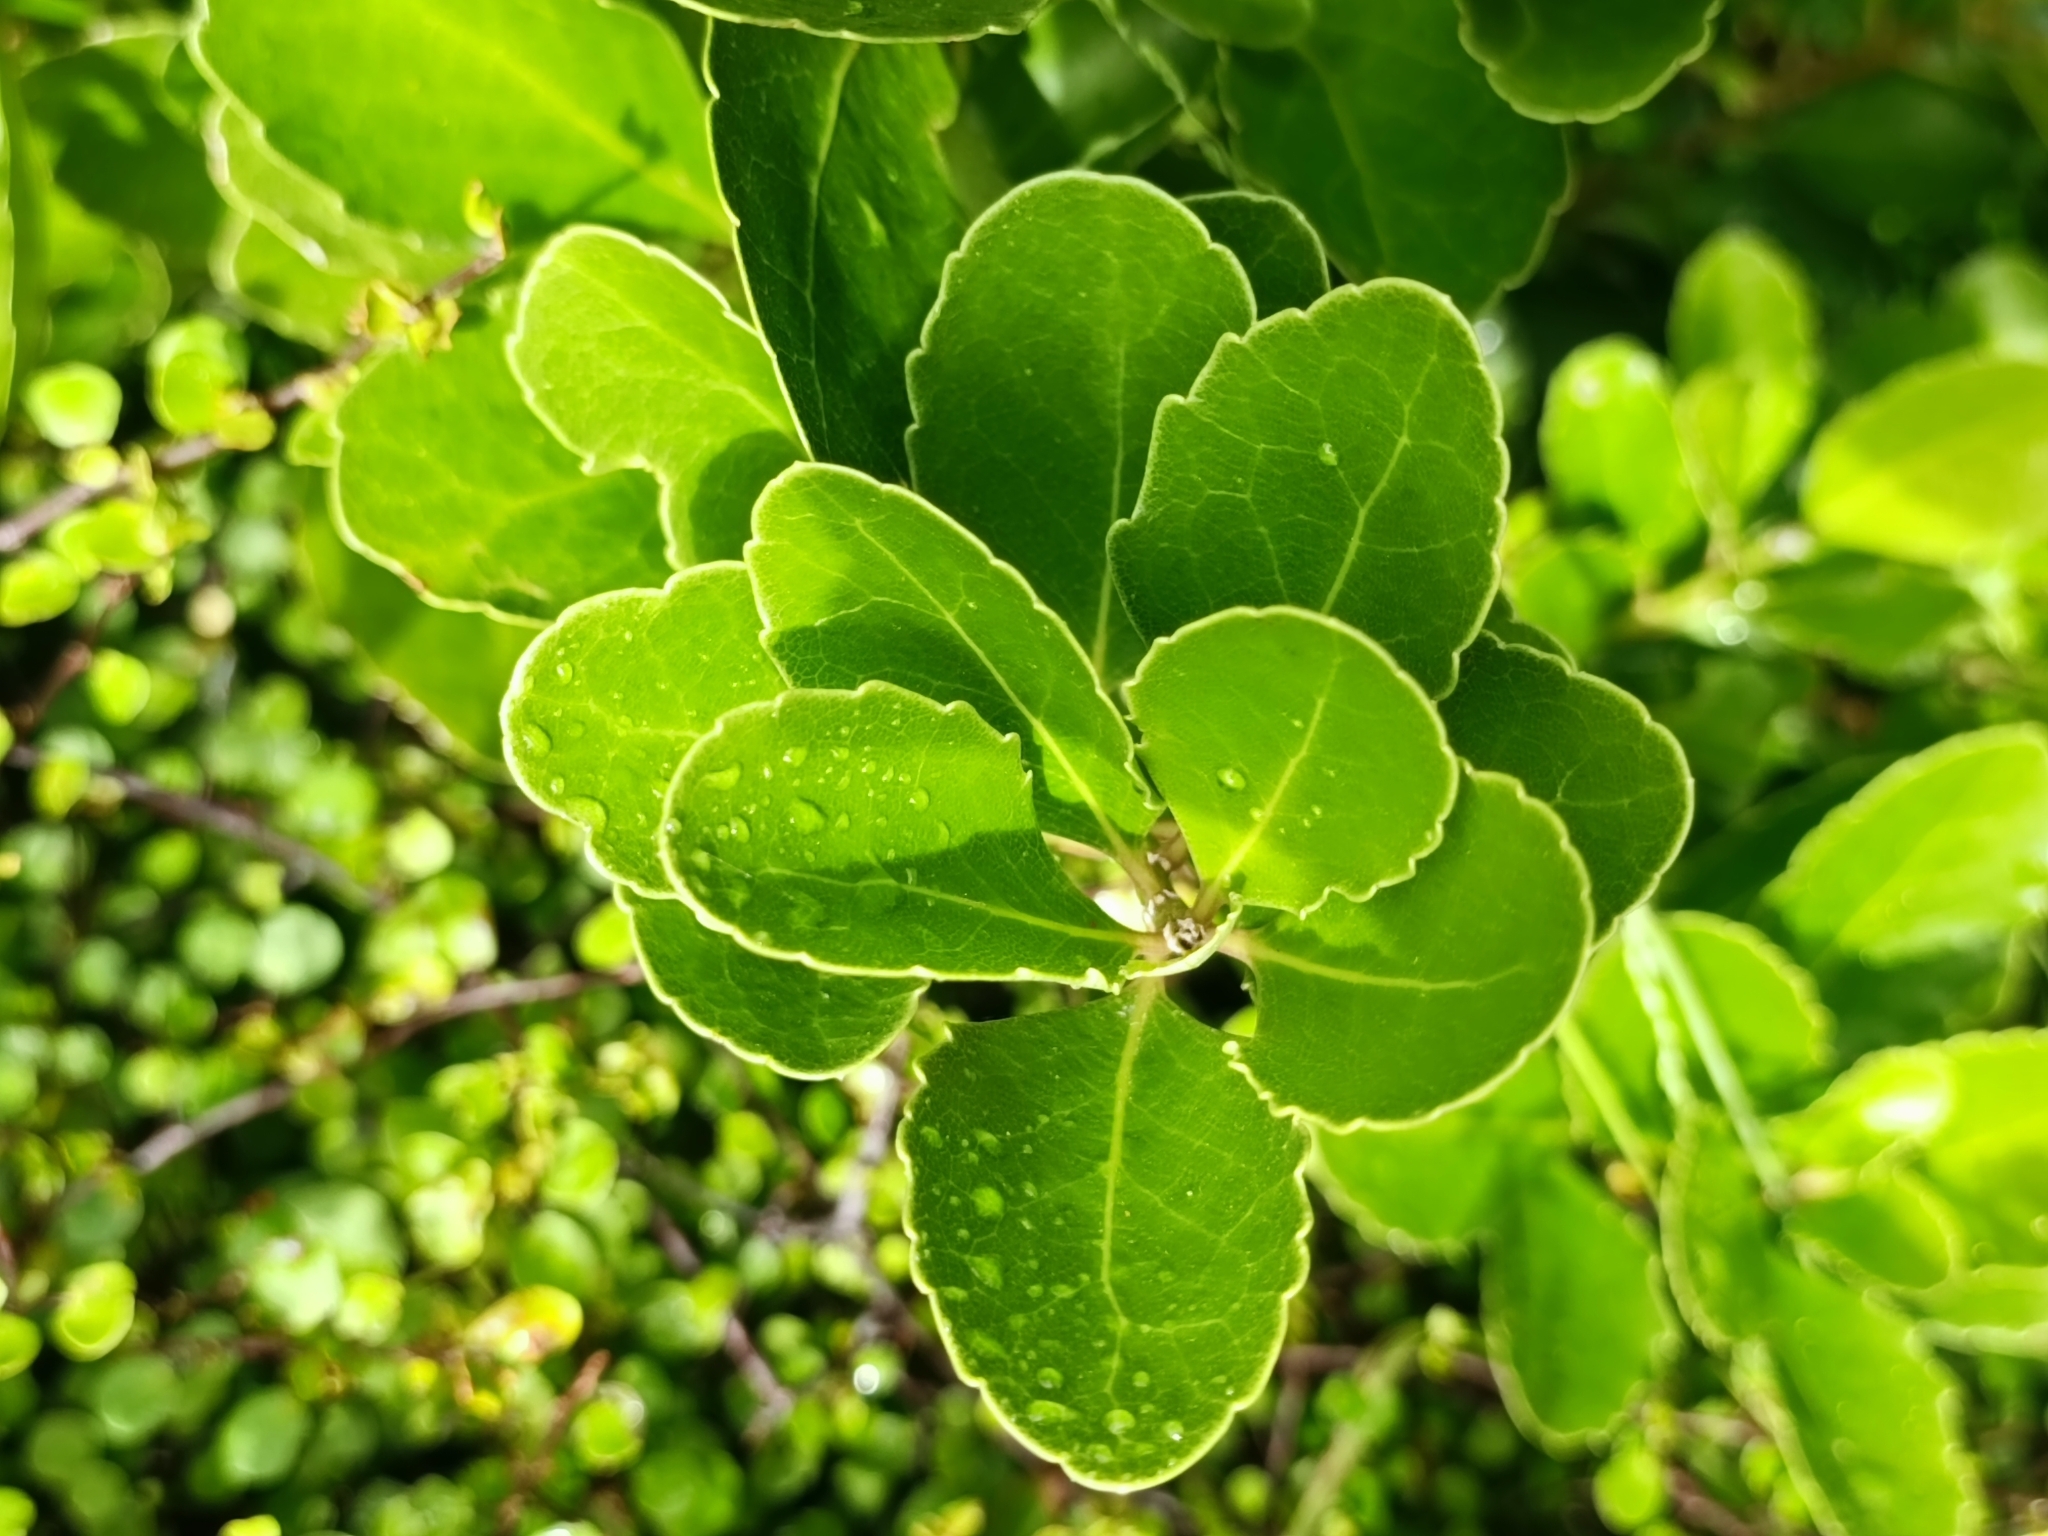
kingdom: Plantae
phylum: Tracheophyta
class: Magnoliopsida
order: Malpighiales
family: Violaceae
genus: Melicytus
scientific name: Melicytus novae-zelandiae
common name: Coastal mahoe
